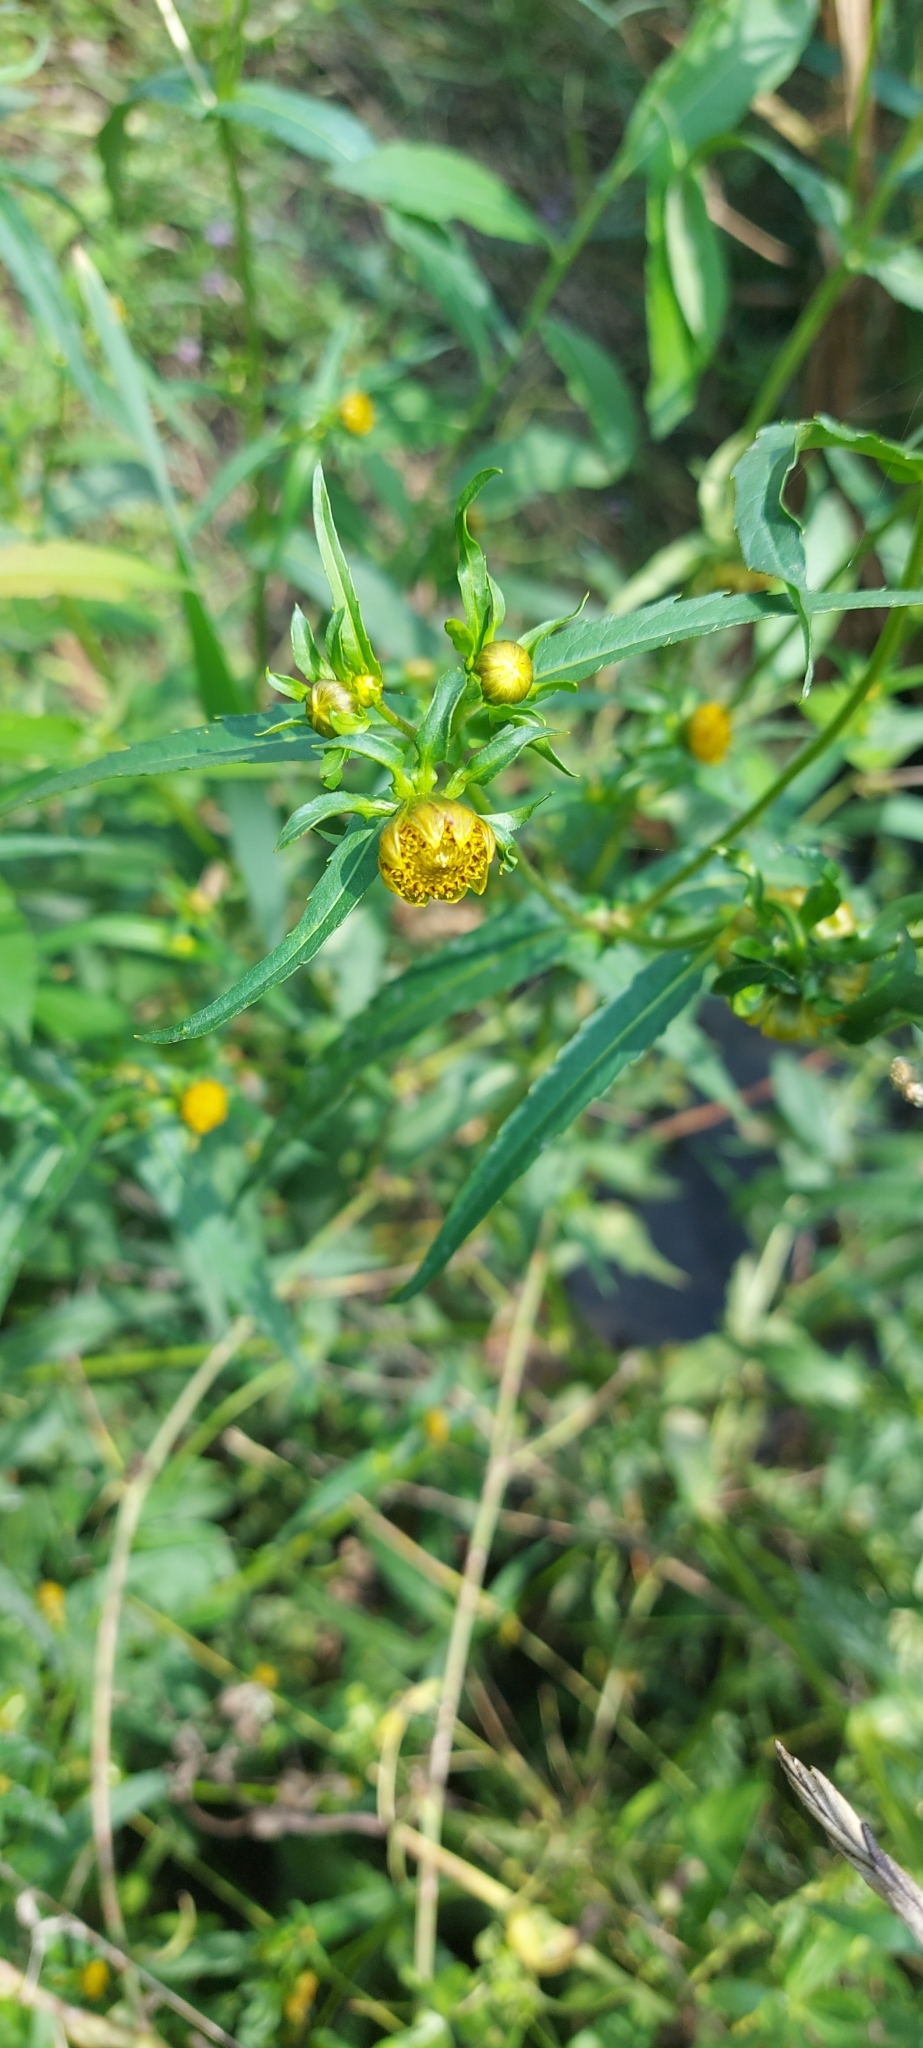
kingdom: Plantae
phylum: Tracheophyta
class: Magnoliopsida
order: Asterales
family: Asteraceae
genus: Bidens
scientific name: Bidens cernua
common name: Nodding bur-marigold
